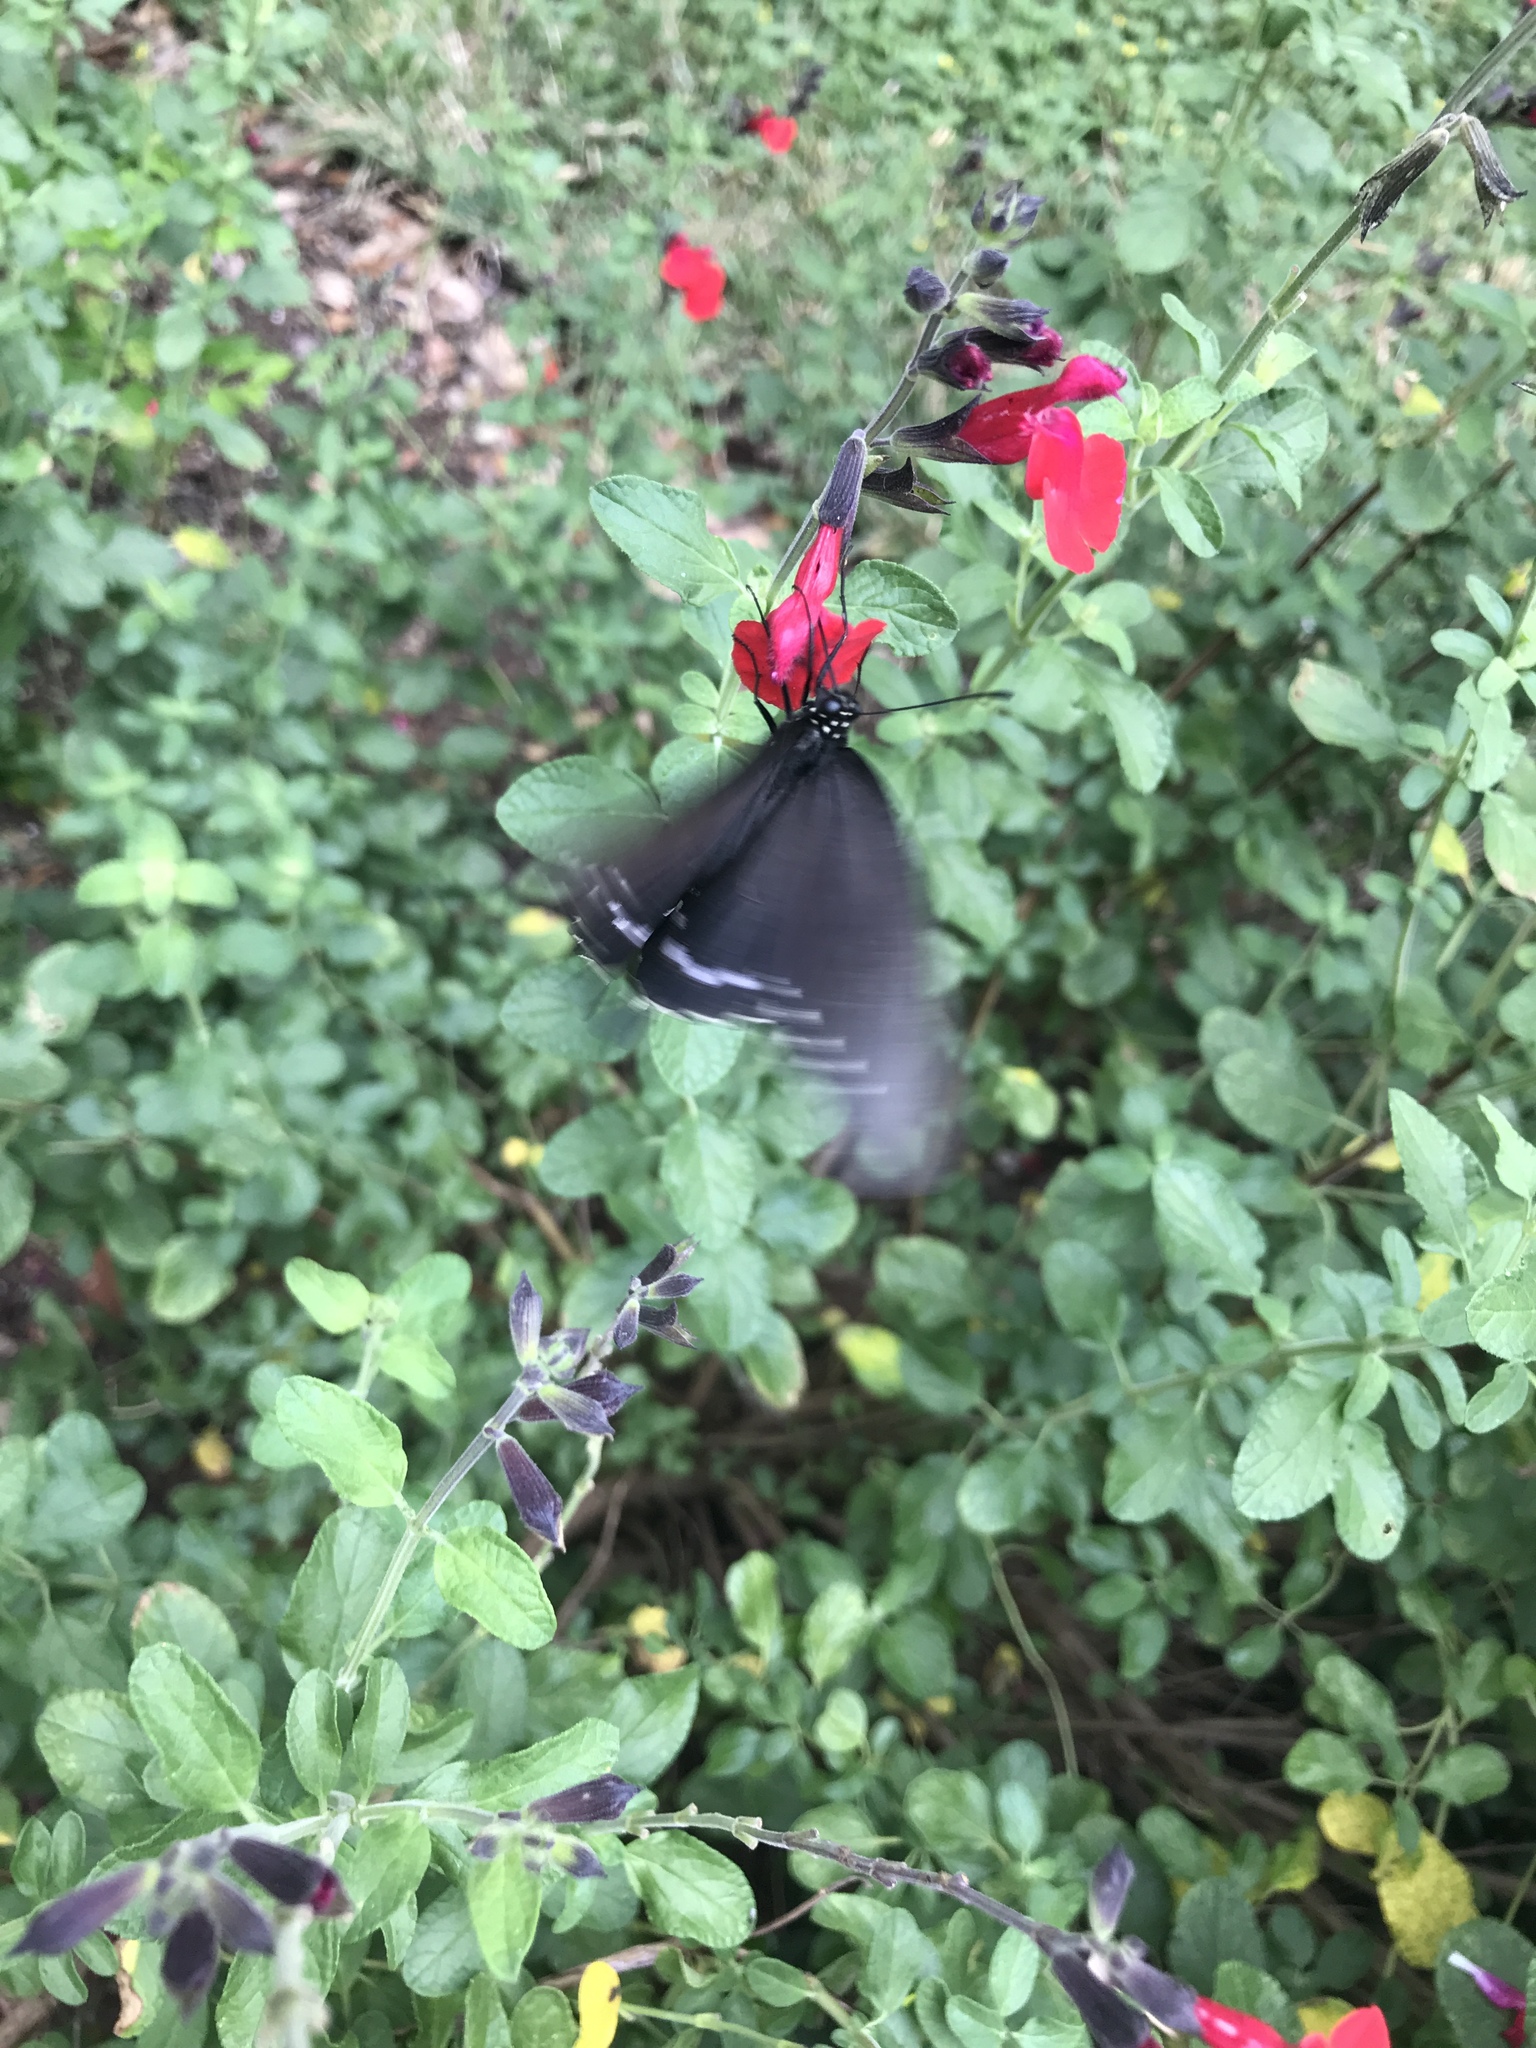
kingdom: Animalia
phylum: Arthropoda
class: Insecta
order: Lepidoptera
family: Papilionidae
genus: Battus
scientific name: Battus philenor
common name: Pipevine swallowtail
